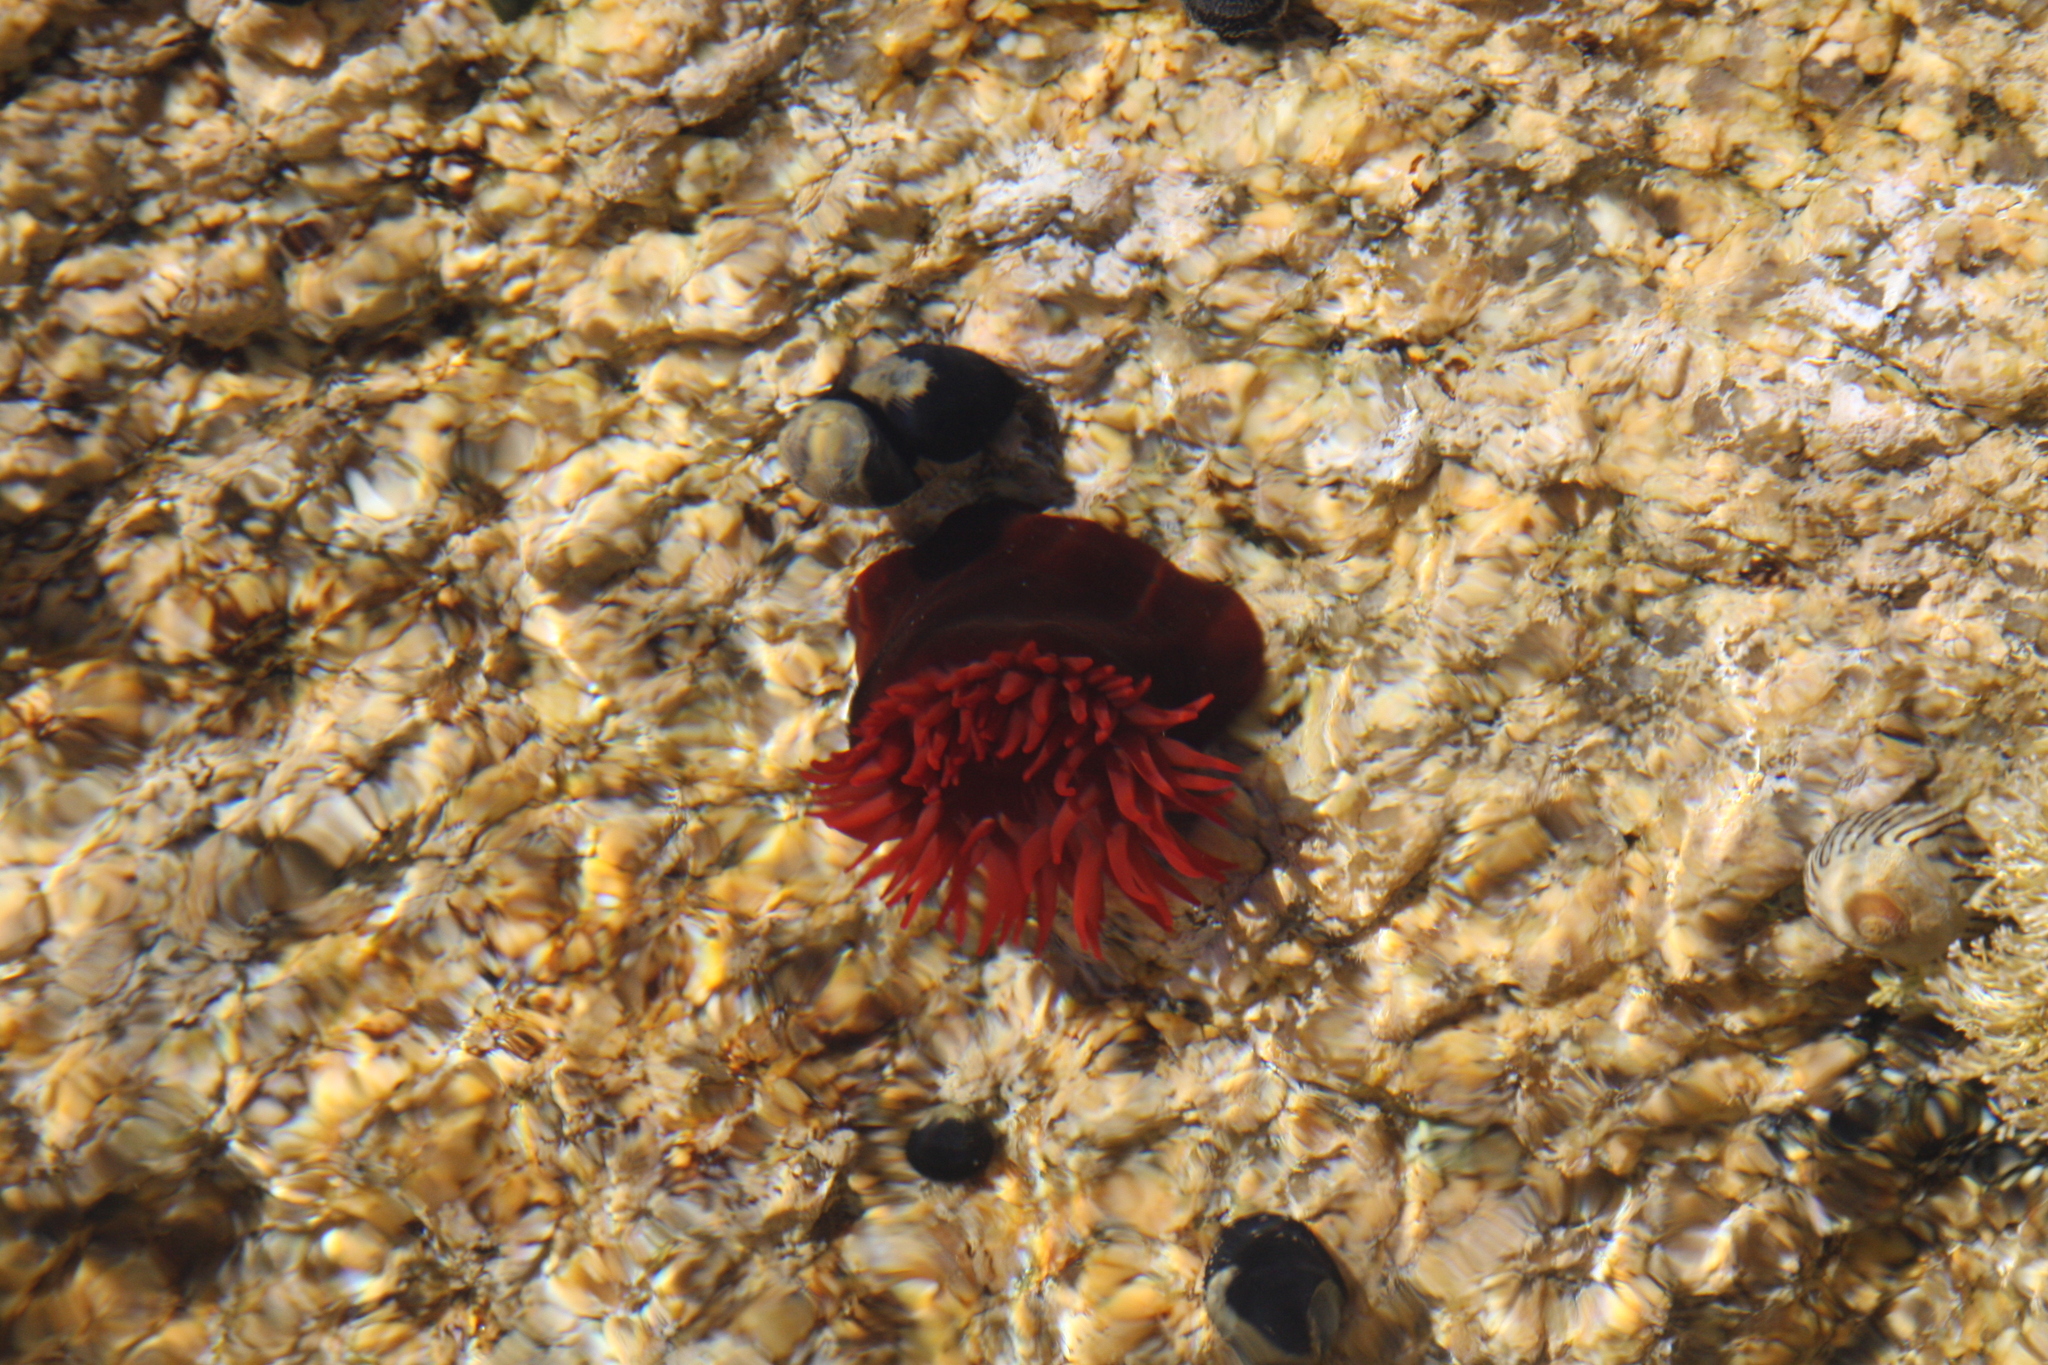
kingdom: Animalia
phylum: Cnidaria
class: Anthozoa
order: Actiniaria
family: Actiniidae
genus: Actinia
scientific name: Actinia tenebrosa
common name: Waratah anemone
